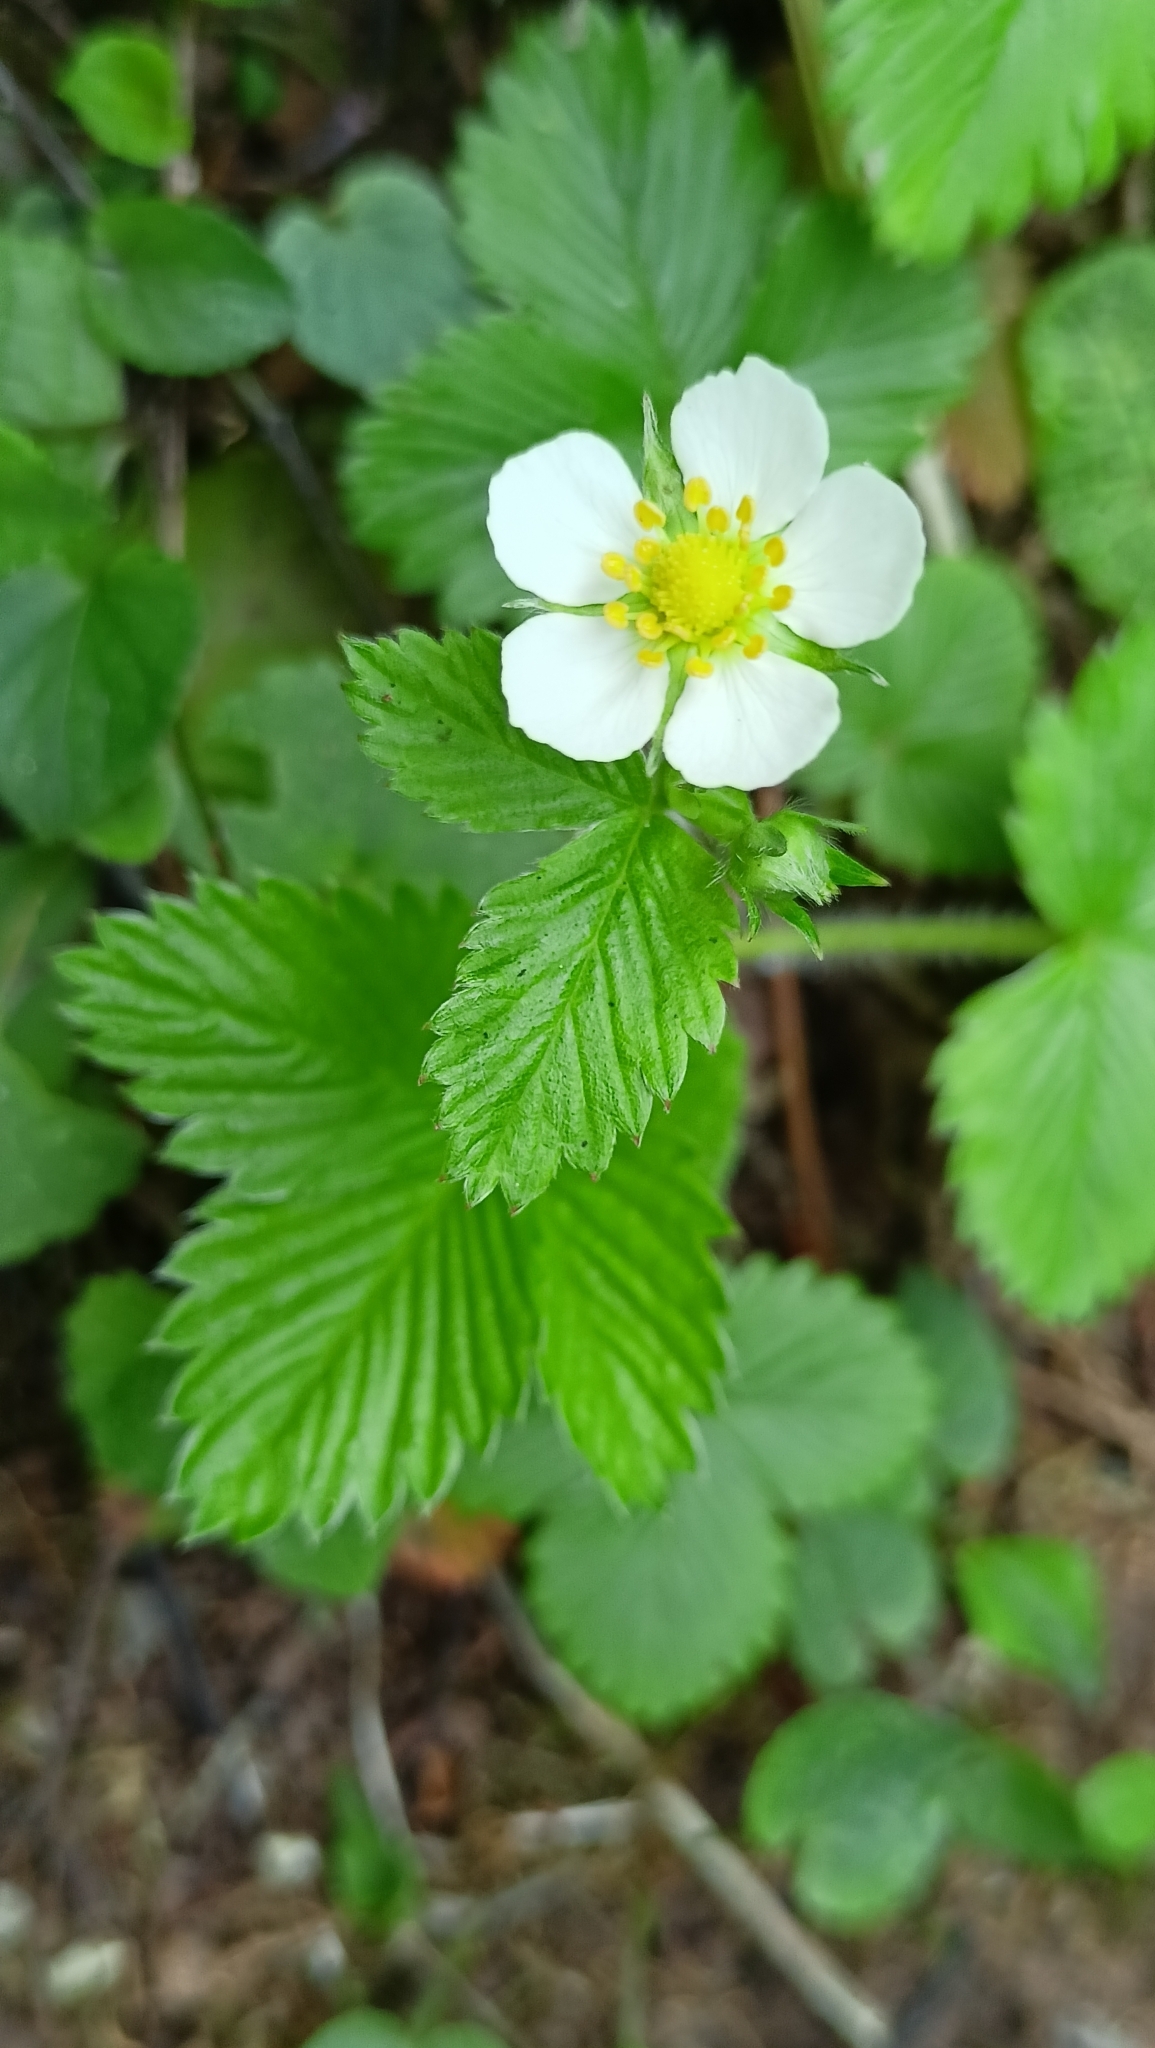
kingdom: Plantae
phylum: Tracheophyta
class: Magnoliopsida
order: Rosales
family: Rosaceae
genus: Fragaria
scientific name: Fragaria vesca
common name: Wild strawberry
